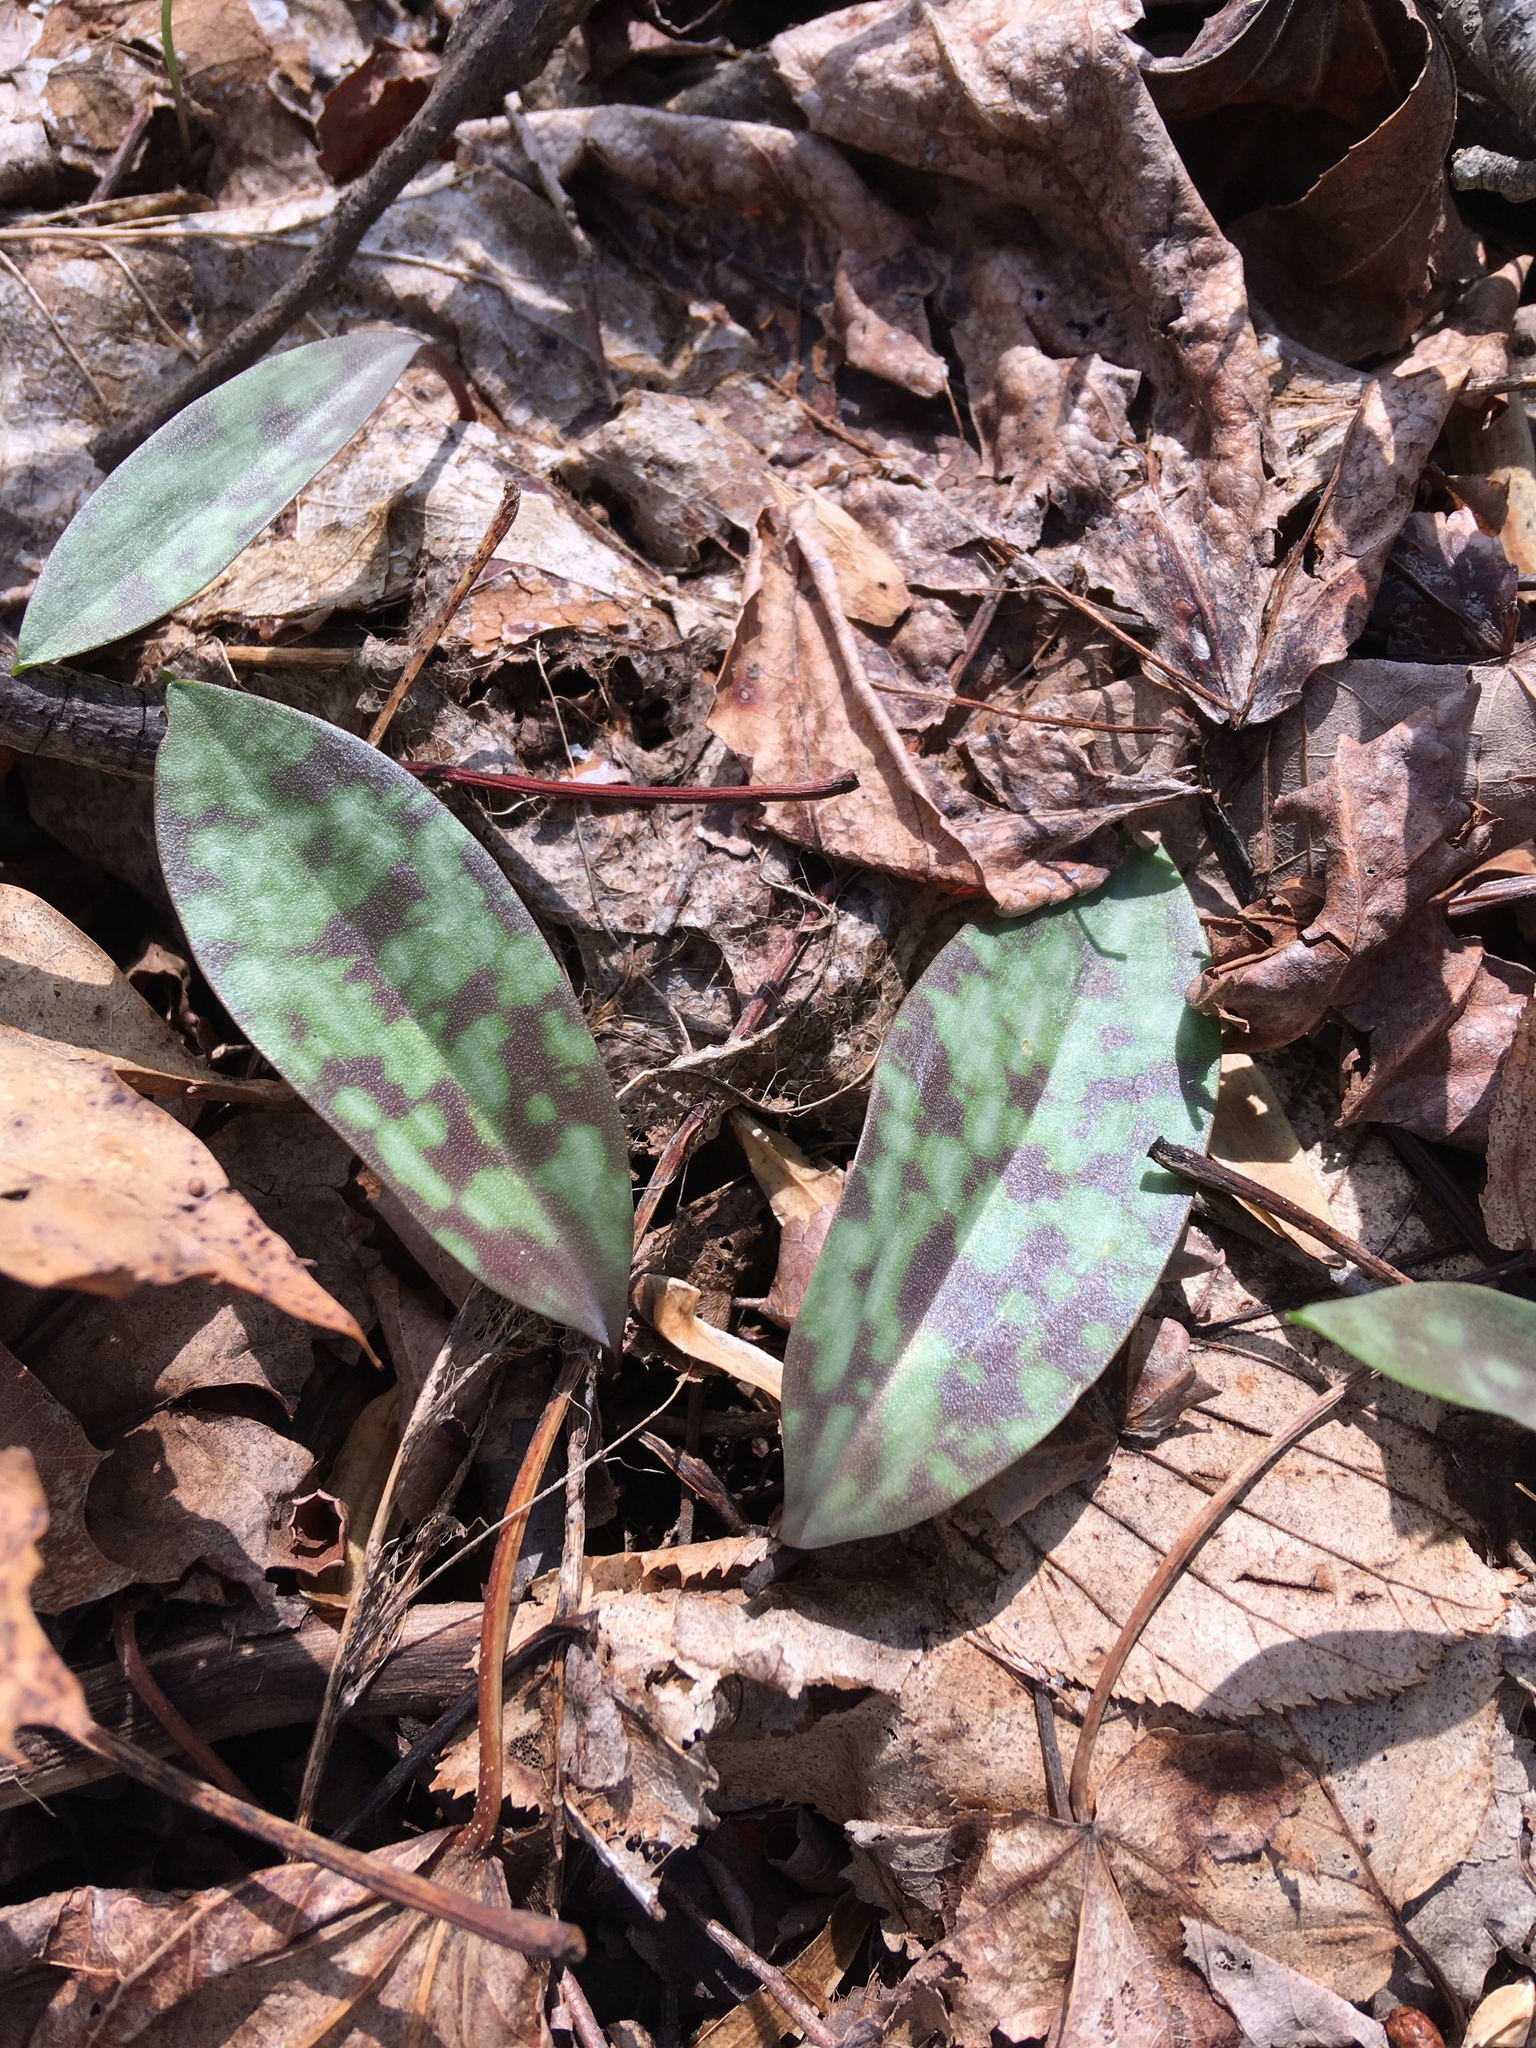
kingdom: Plantae
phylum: Tracheophyta
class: Liliopsida
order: Liliales
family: Liliaceae
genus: Erythronium
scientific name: Erythronium americanum
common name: Yellow adder's-tongue
